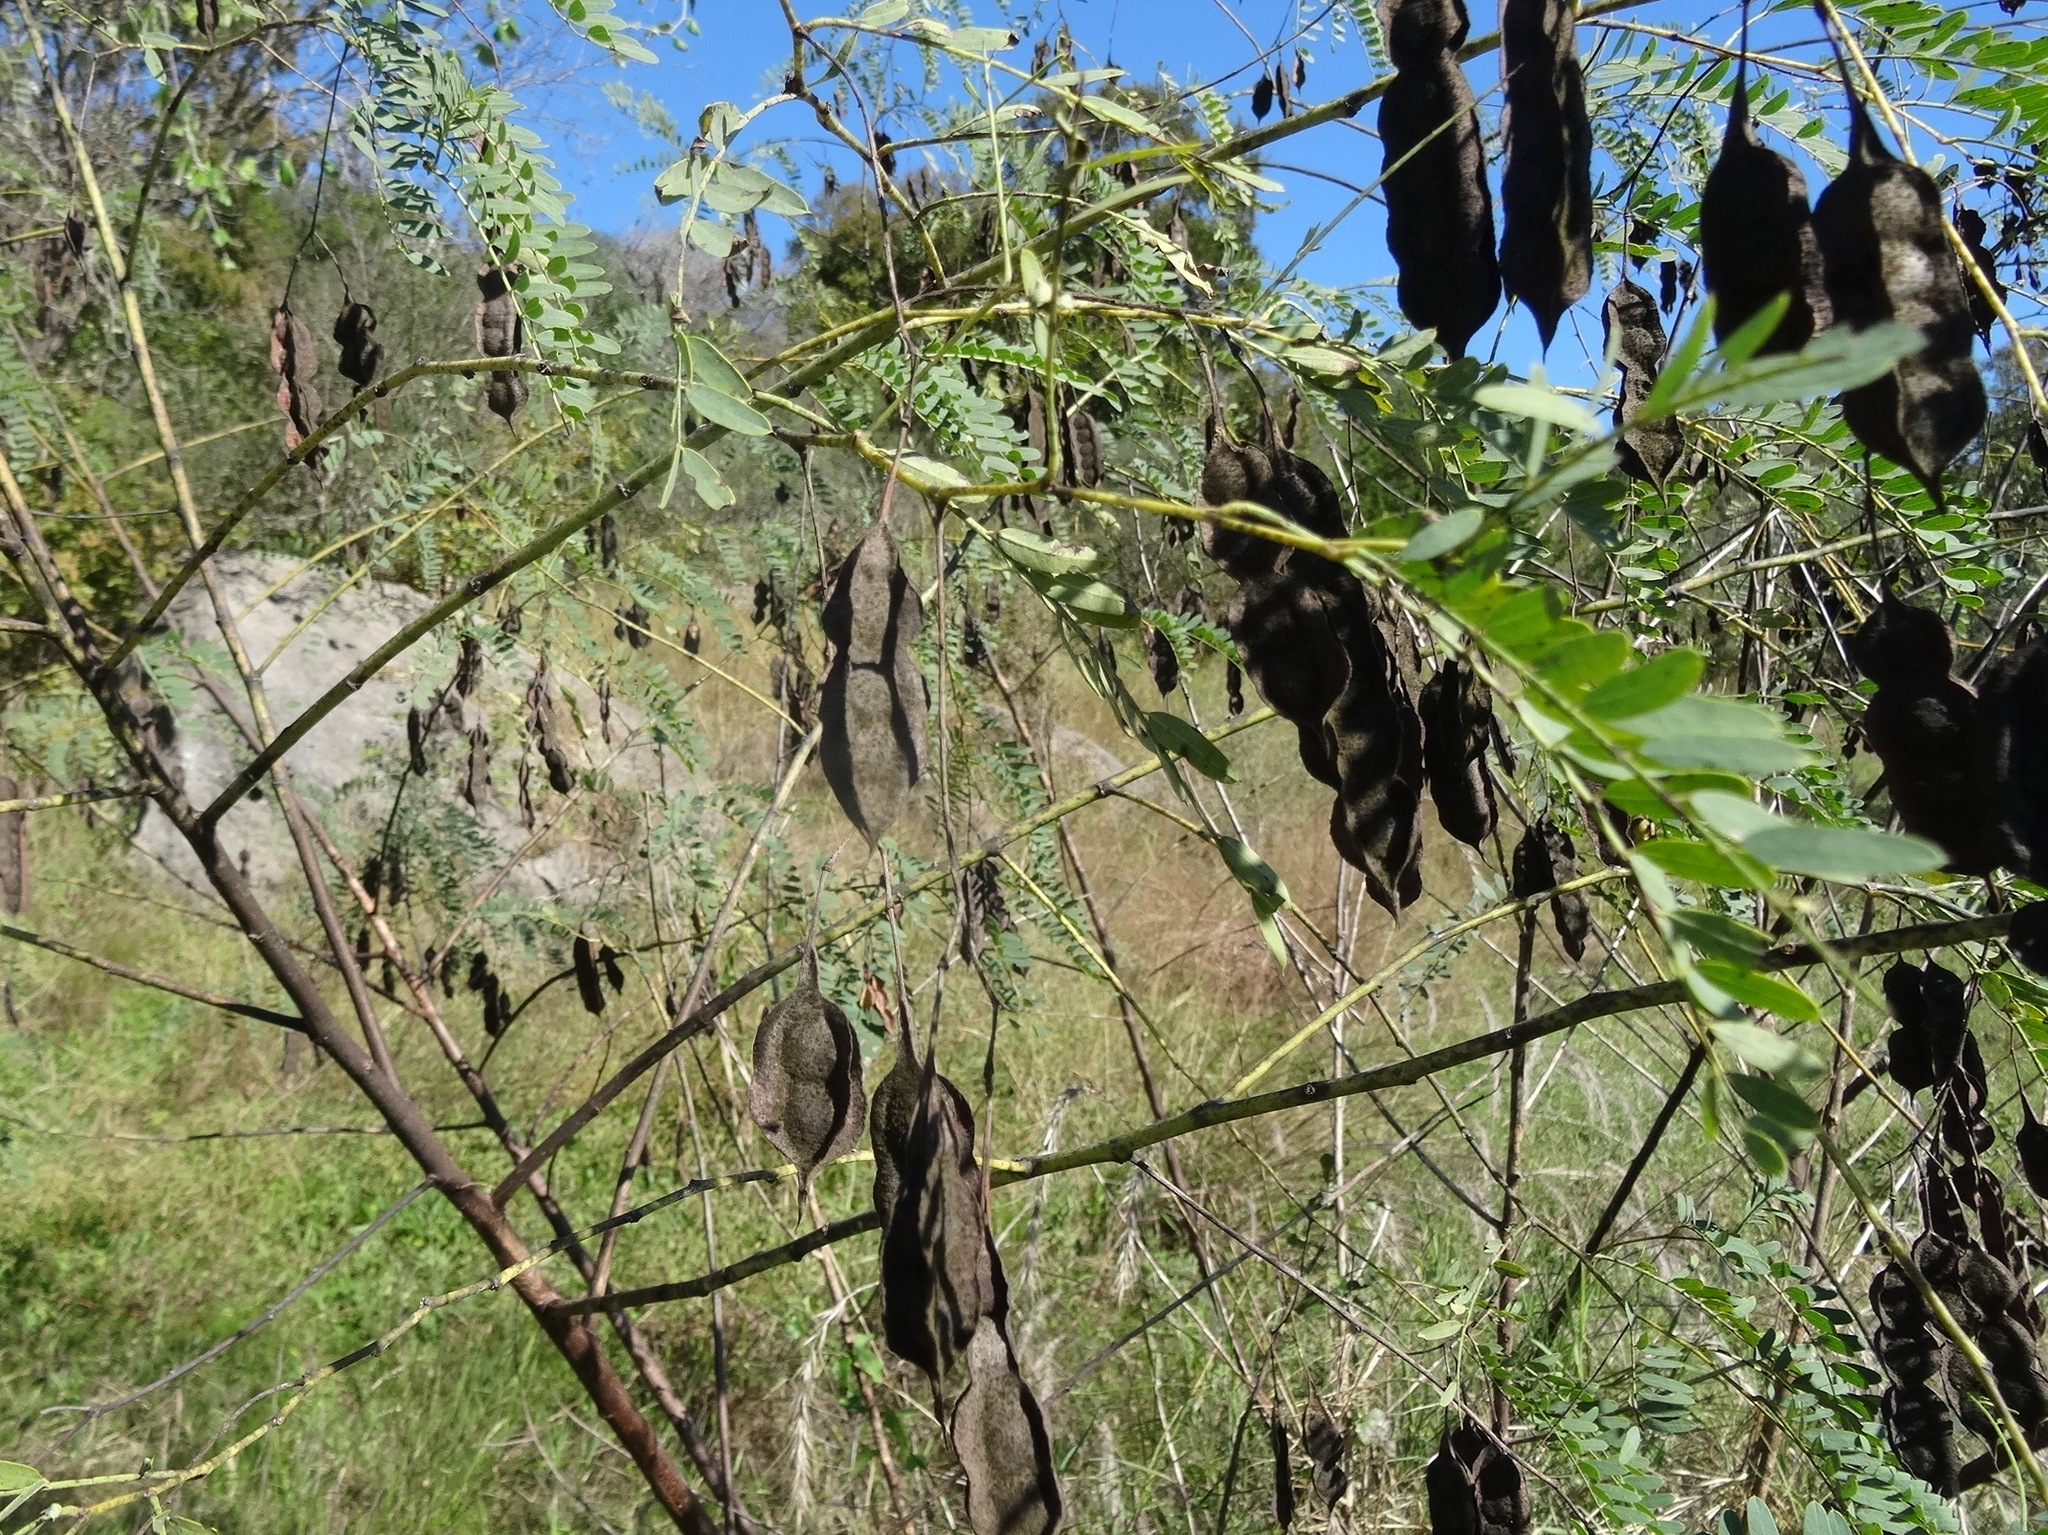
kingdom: Plantae
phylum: Tracheophyta
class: Magnoliopsida
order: Fabales
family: Fabaceae
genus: Sesbania
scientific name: Sesbania drummondii
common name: Poison-bean
